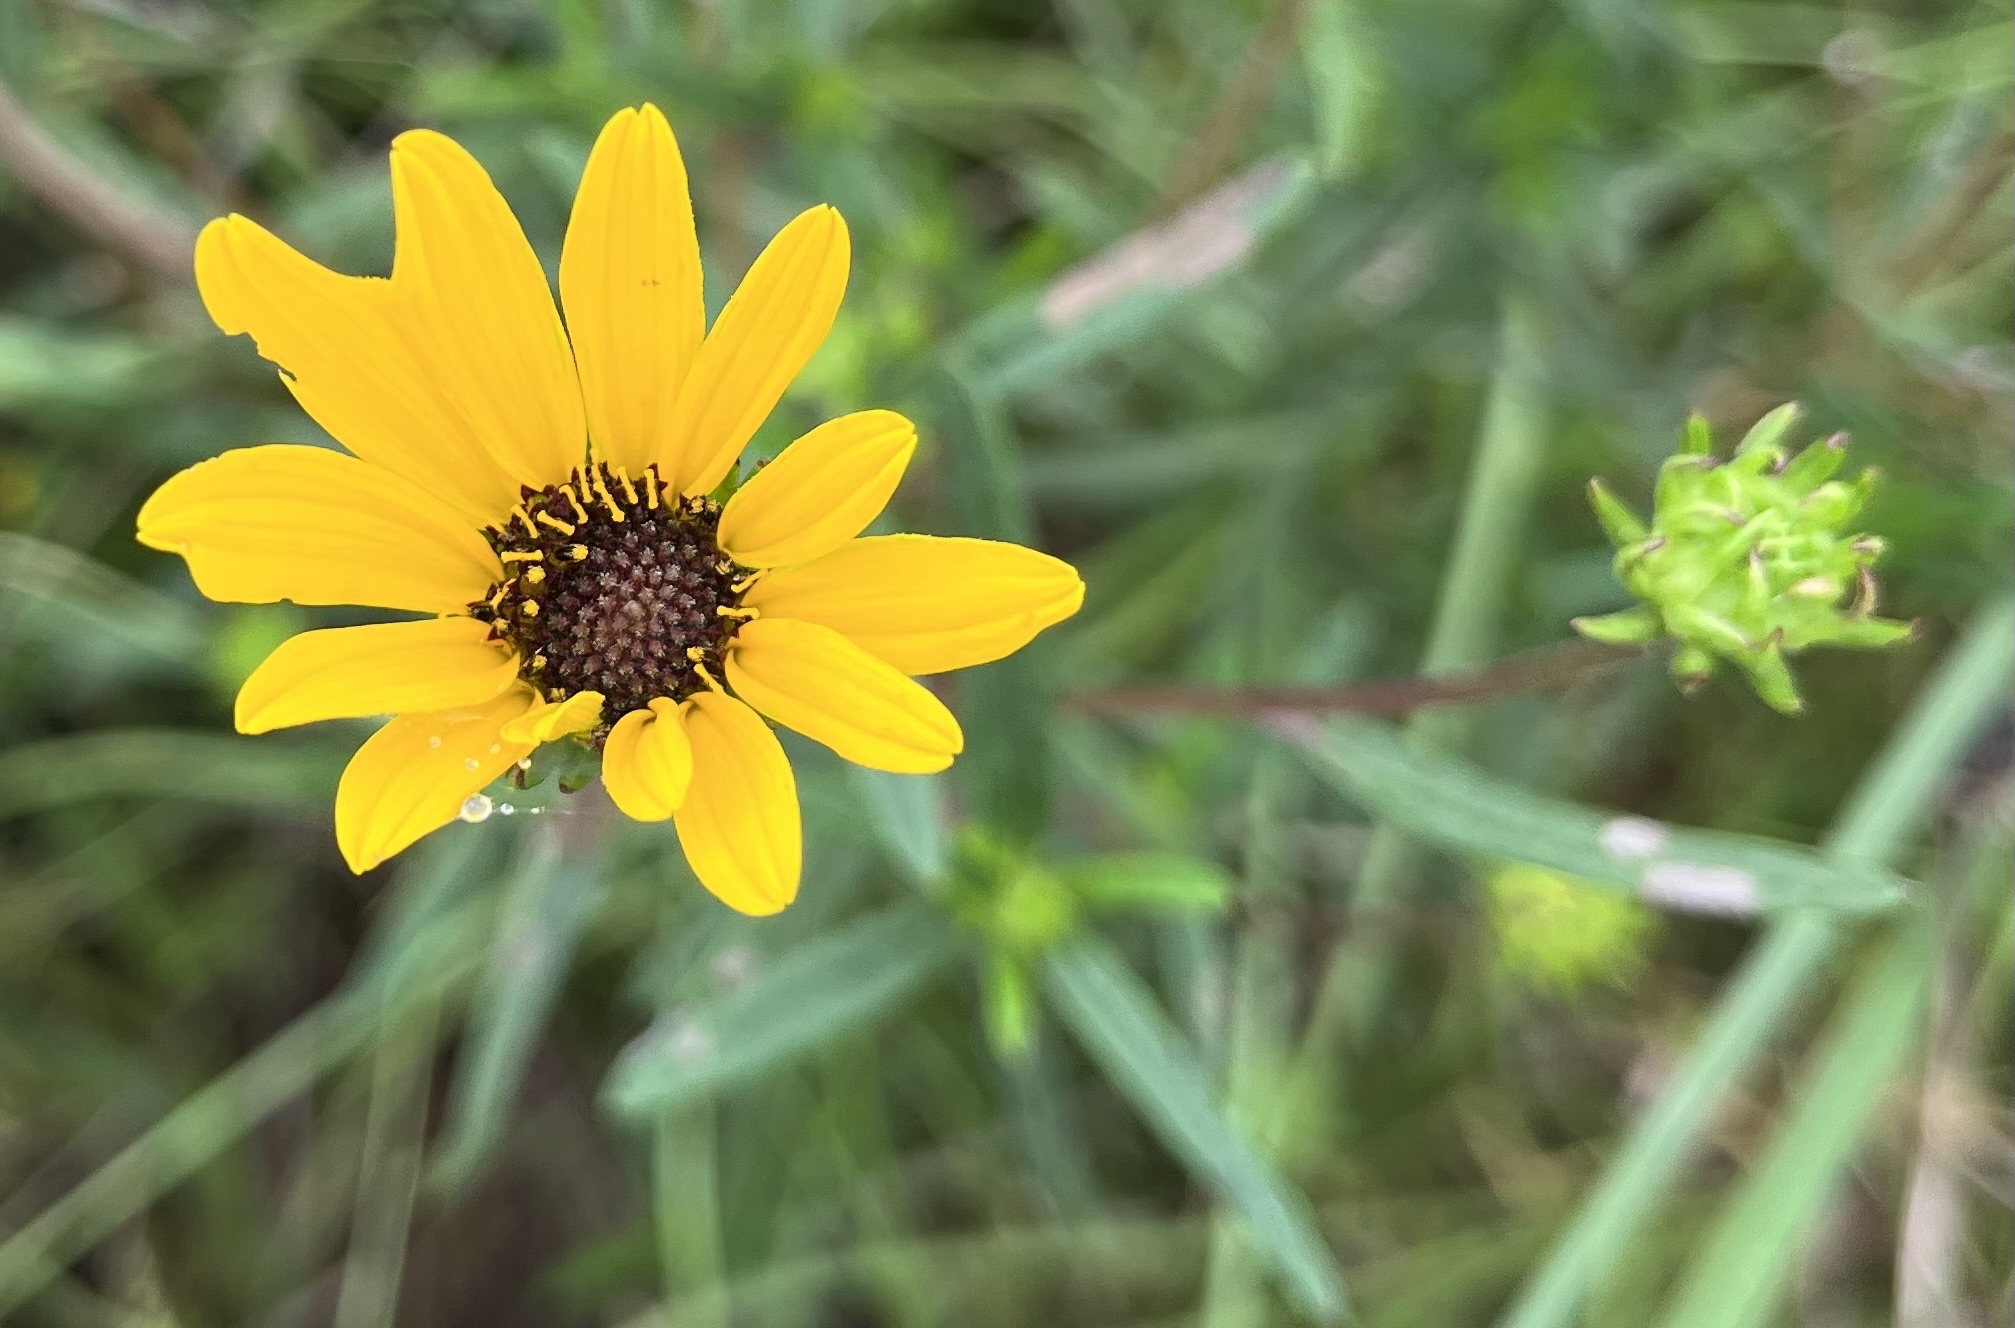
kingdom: Plantae
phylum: Tracheophyta
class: Magnoliopsida
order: Asterales
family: Asteraceae
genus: Helianthus
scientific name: Helianthus angustifolius
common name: Swamp sunflower
